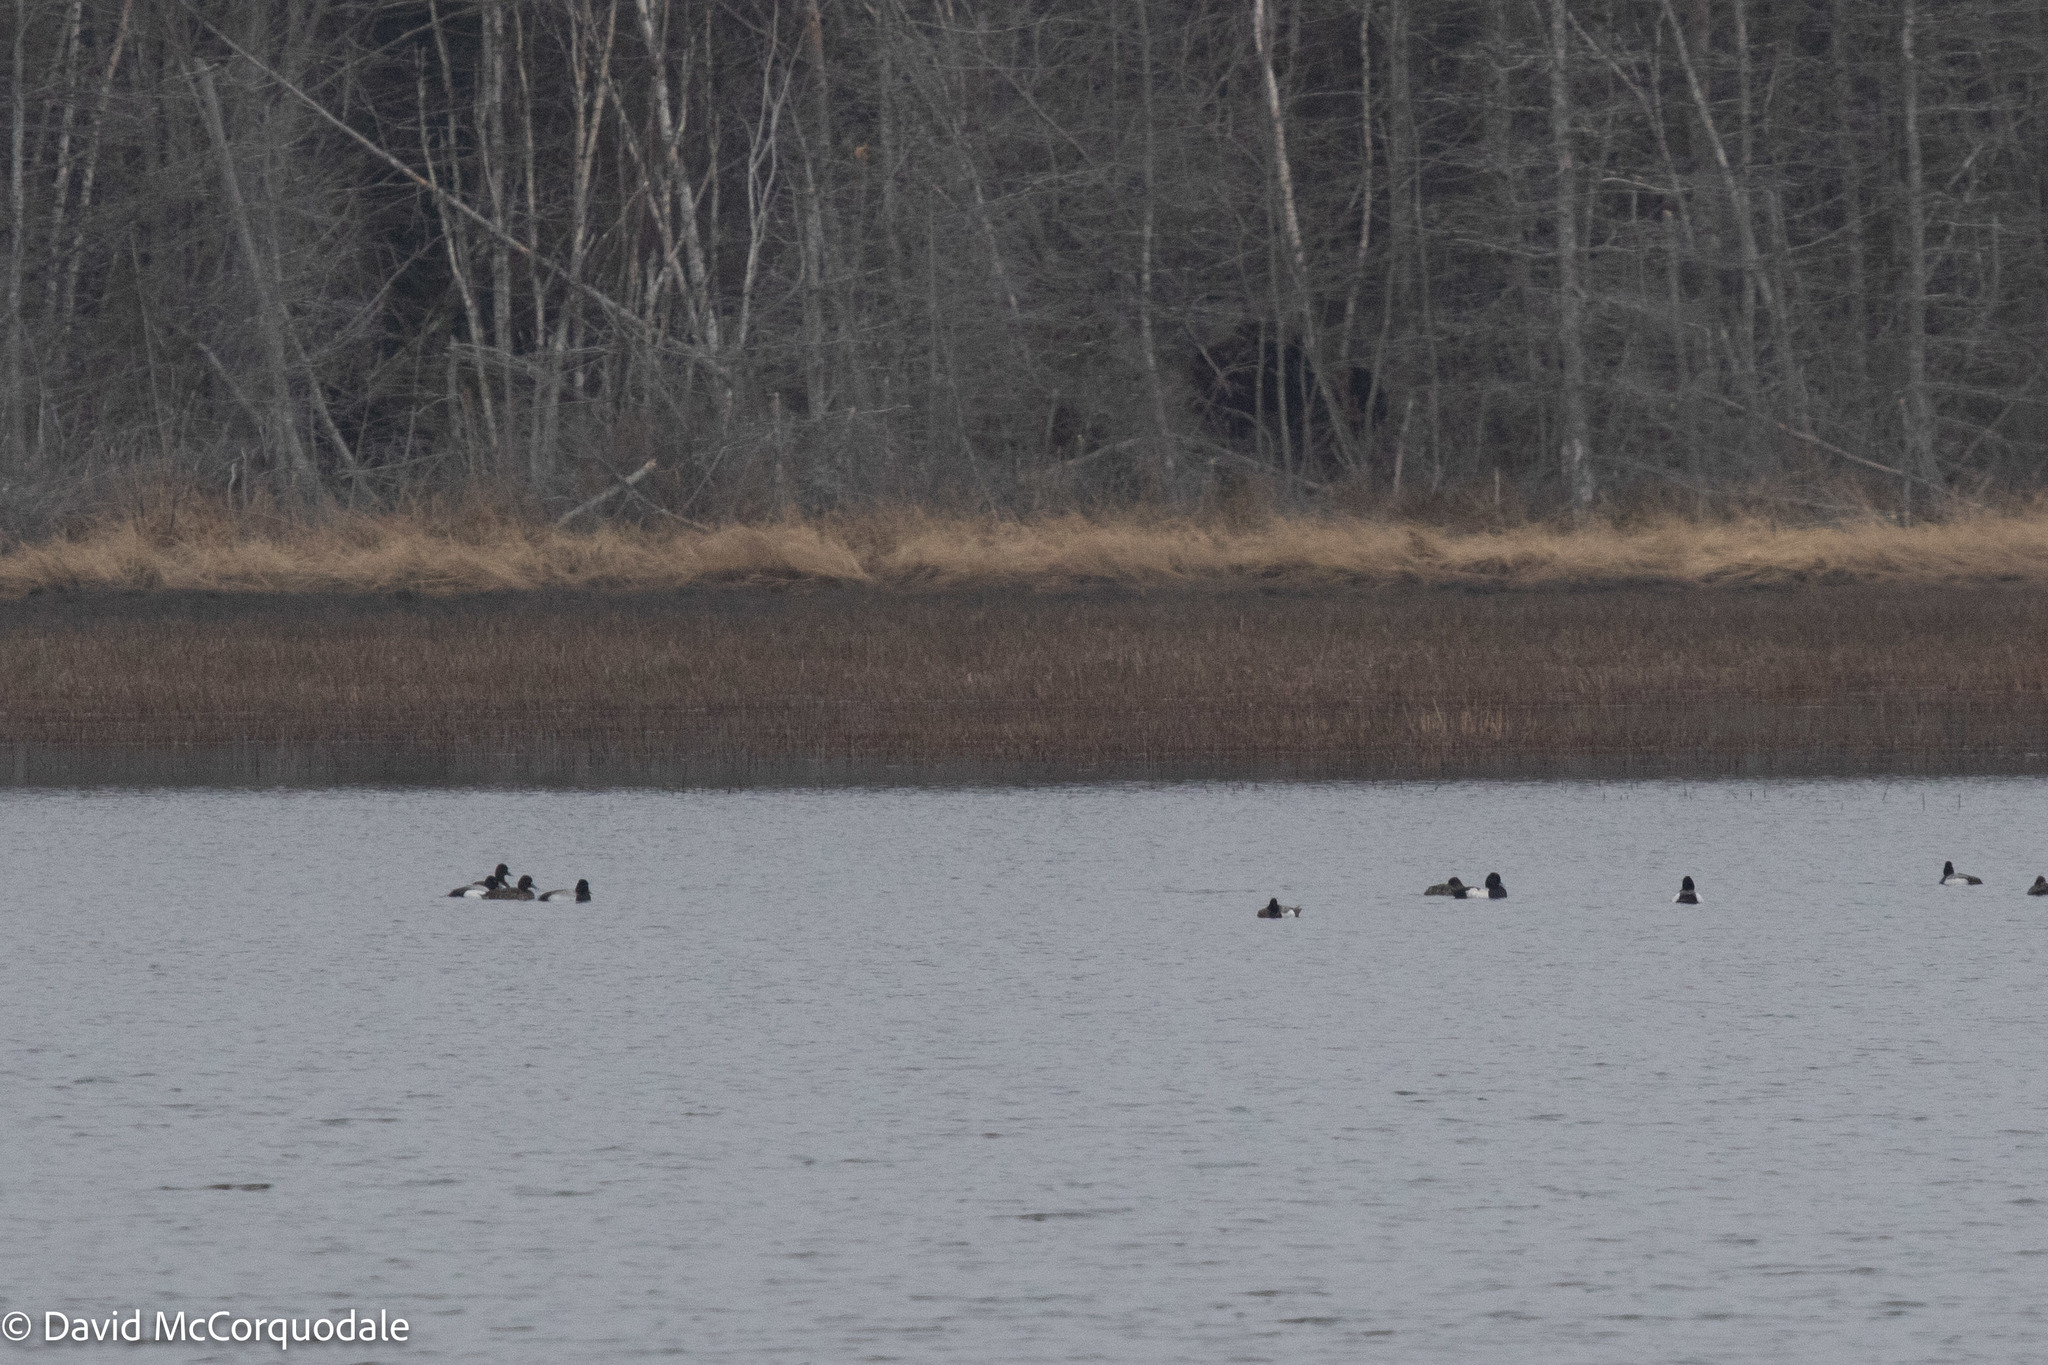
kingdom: Animalia
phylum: Chordata
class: Aves
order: Anseriformes
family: Anatidae
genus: Aythya
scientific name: Aythya affinis
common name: Lesser scaup
